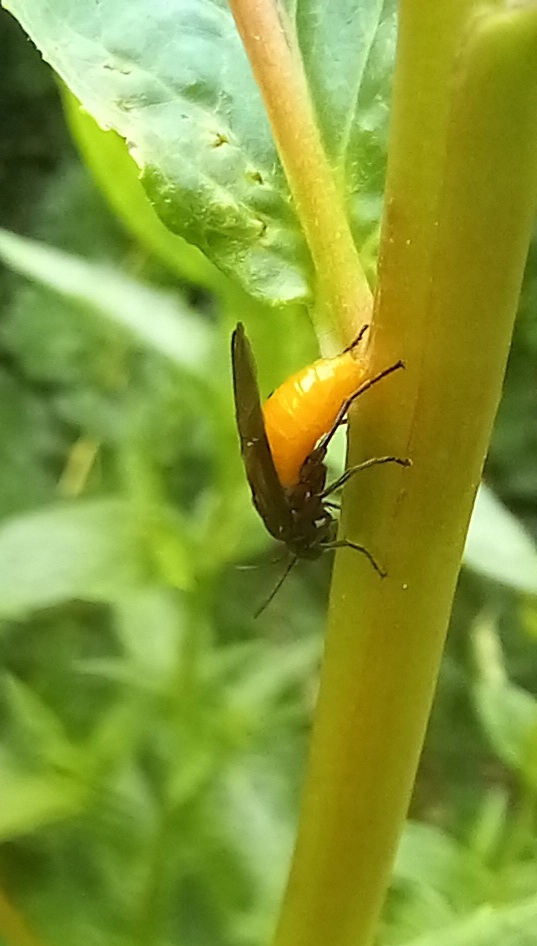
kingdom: Animalia
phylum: Arthropoda
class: Insecta
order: Hymenoptera
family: Argidae
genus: Arge
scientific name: Arge pagana
